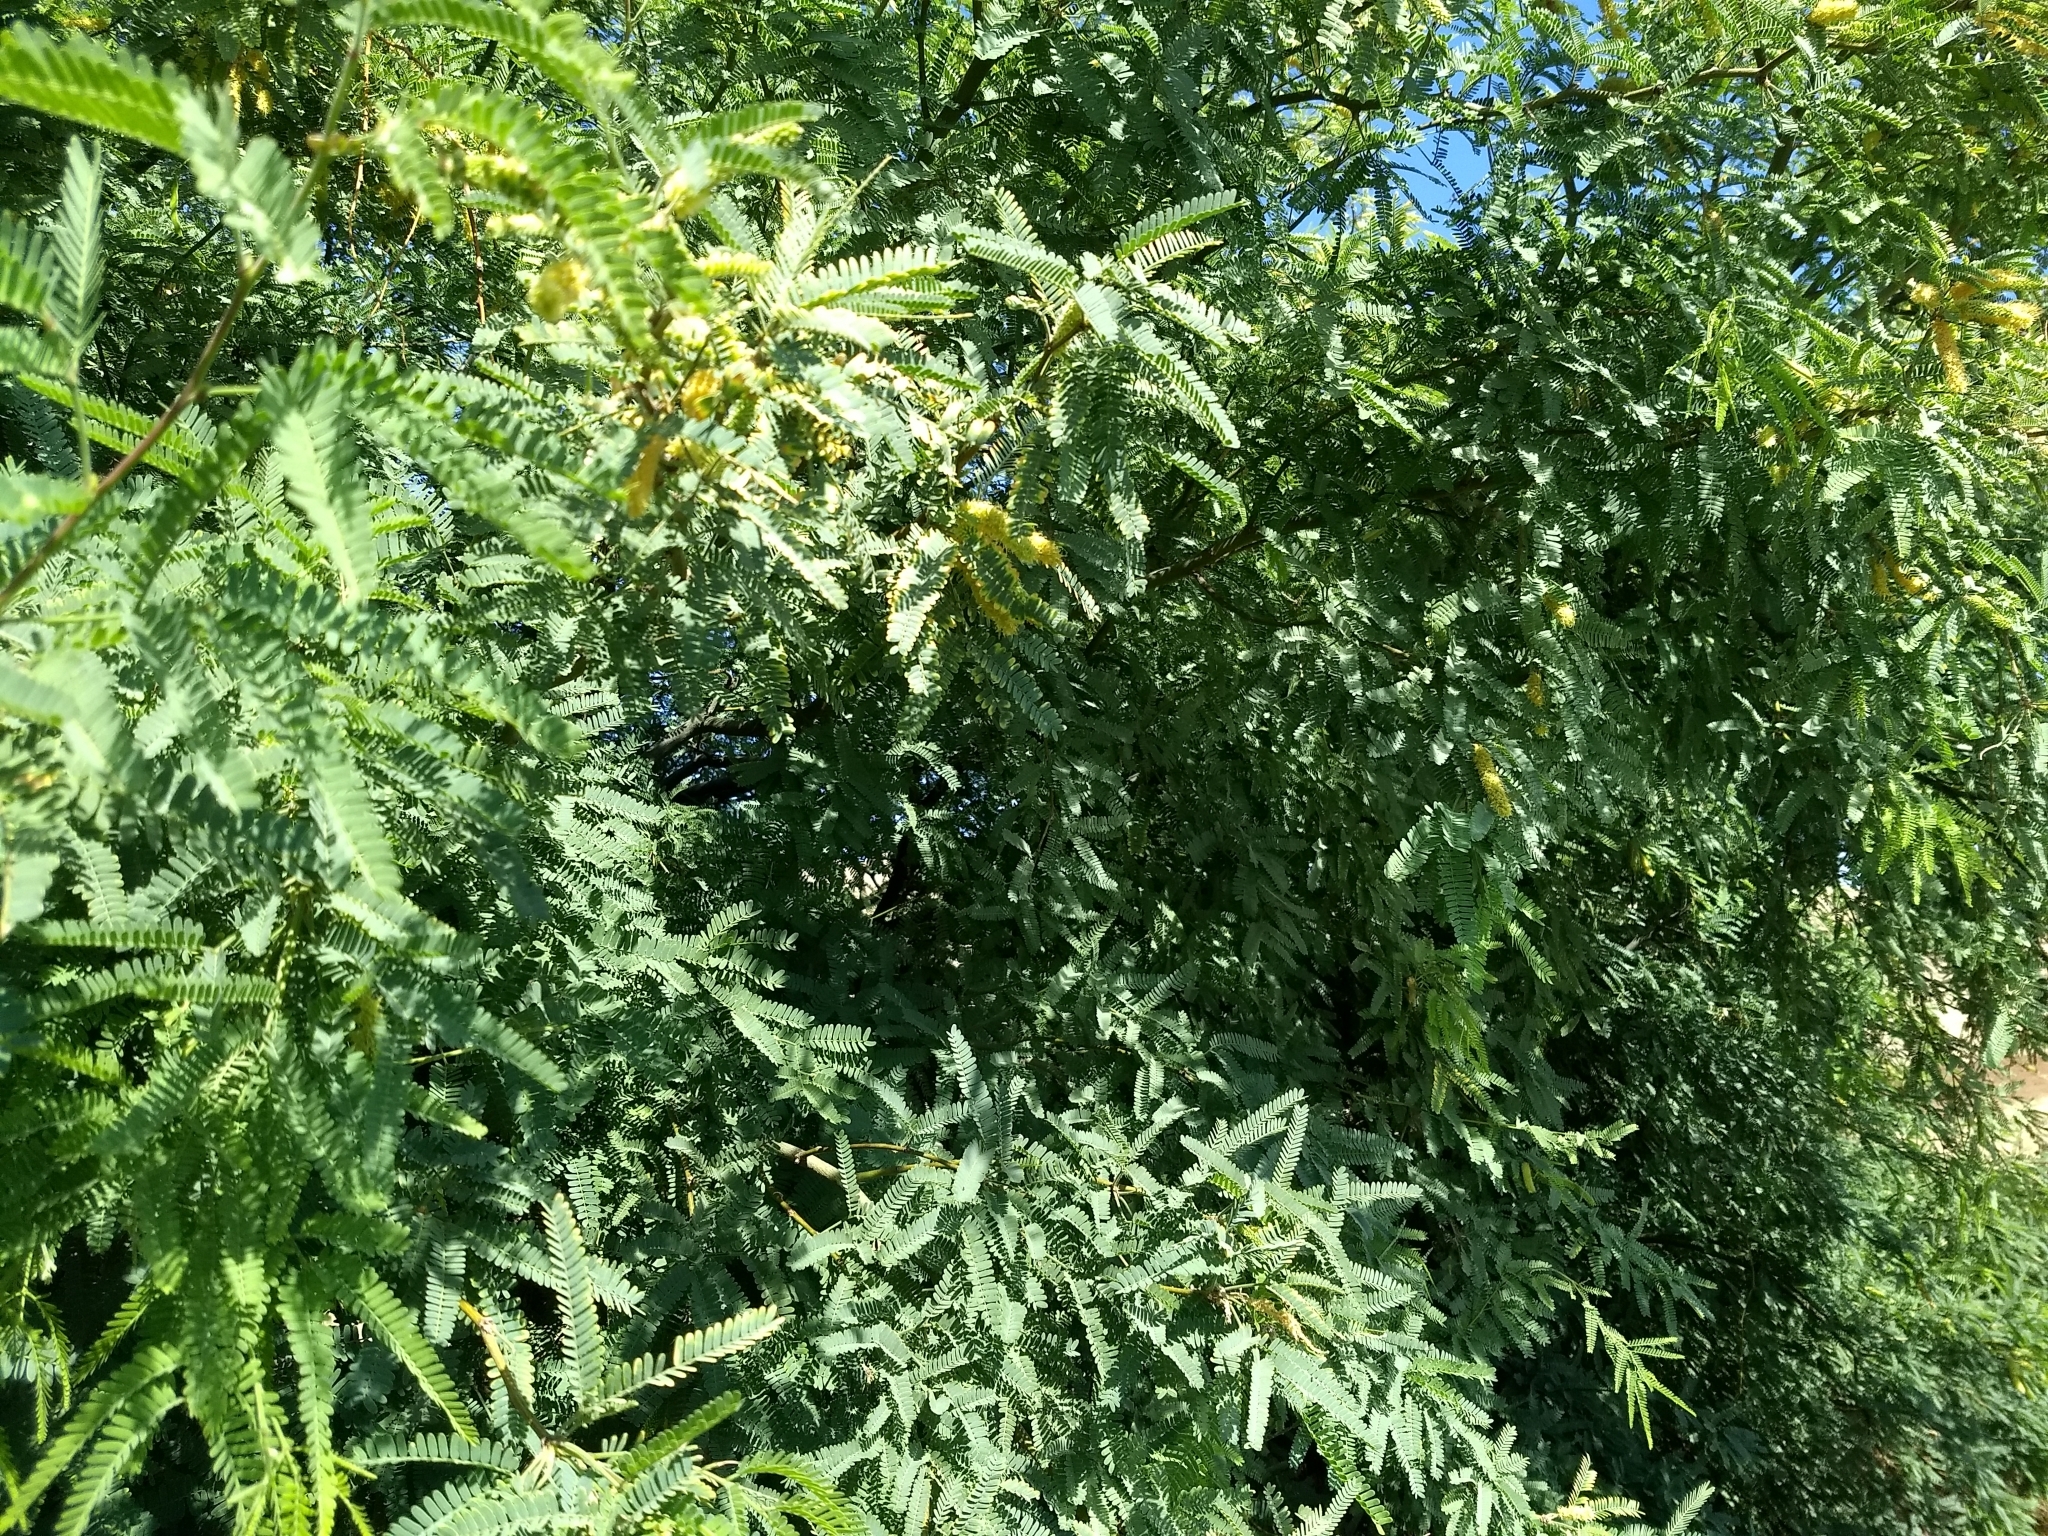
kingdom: Plantae
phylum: Tracheophyta
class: Magnoliopsida
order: Fabales
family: Fabaceae
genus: Prosopis
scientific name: Prosopis velutina
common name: Velvet mesquite
